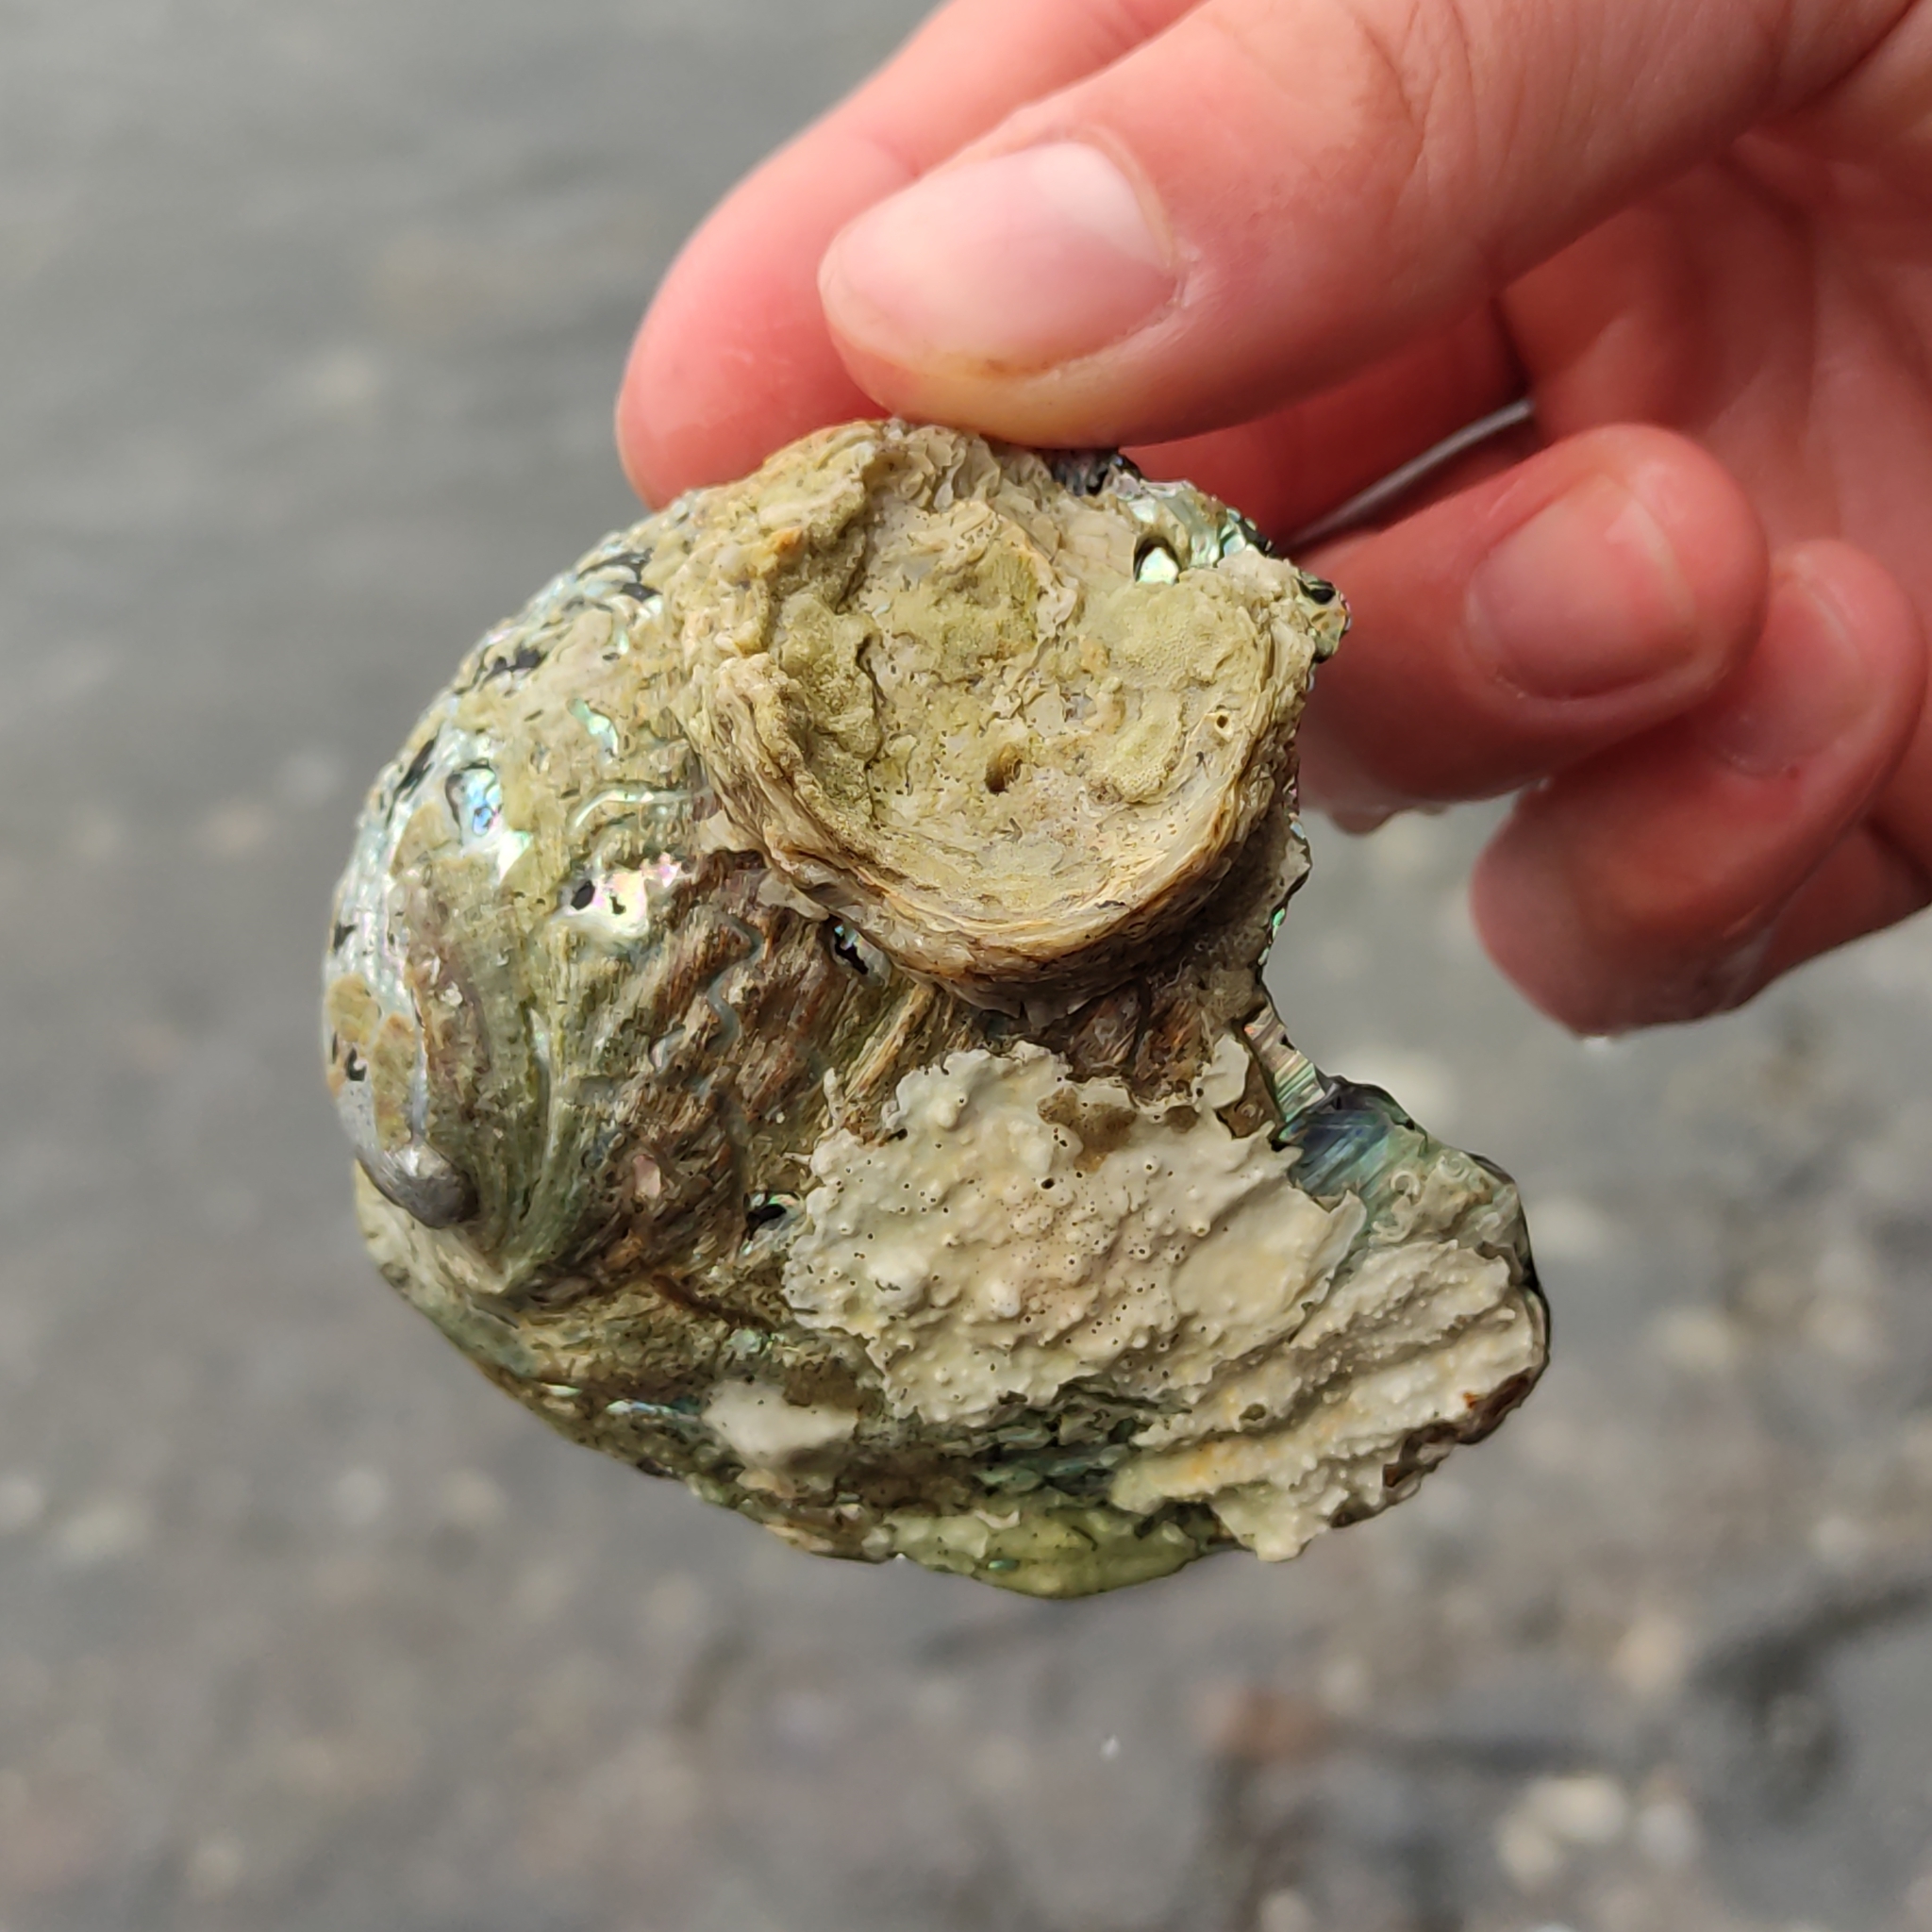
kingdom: Animalia
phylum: Mollusca
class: Gastropoda
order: Lepetellida
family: Haliotidae
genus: Haliotis
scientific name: Haliotis iris
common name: Abalone
